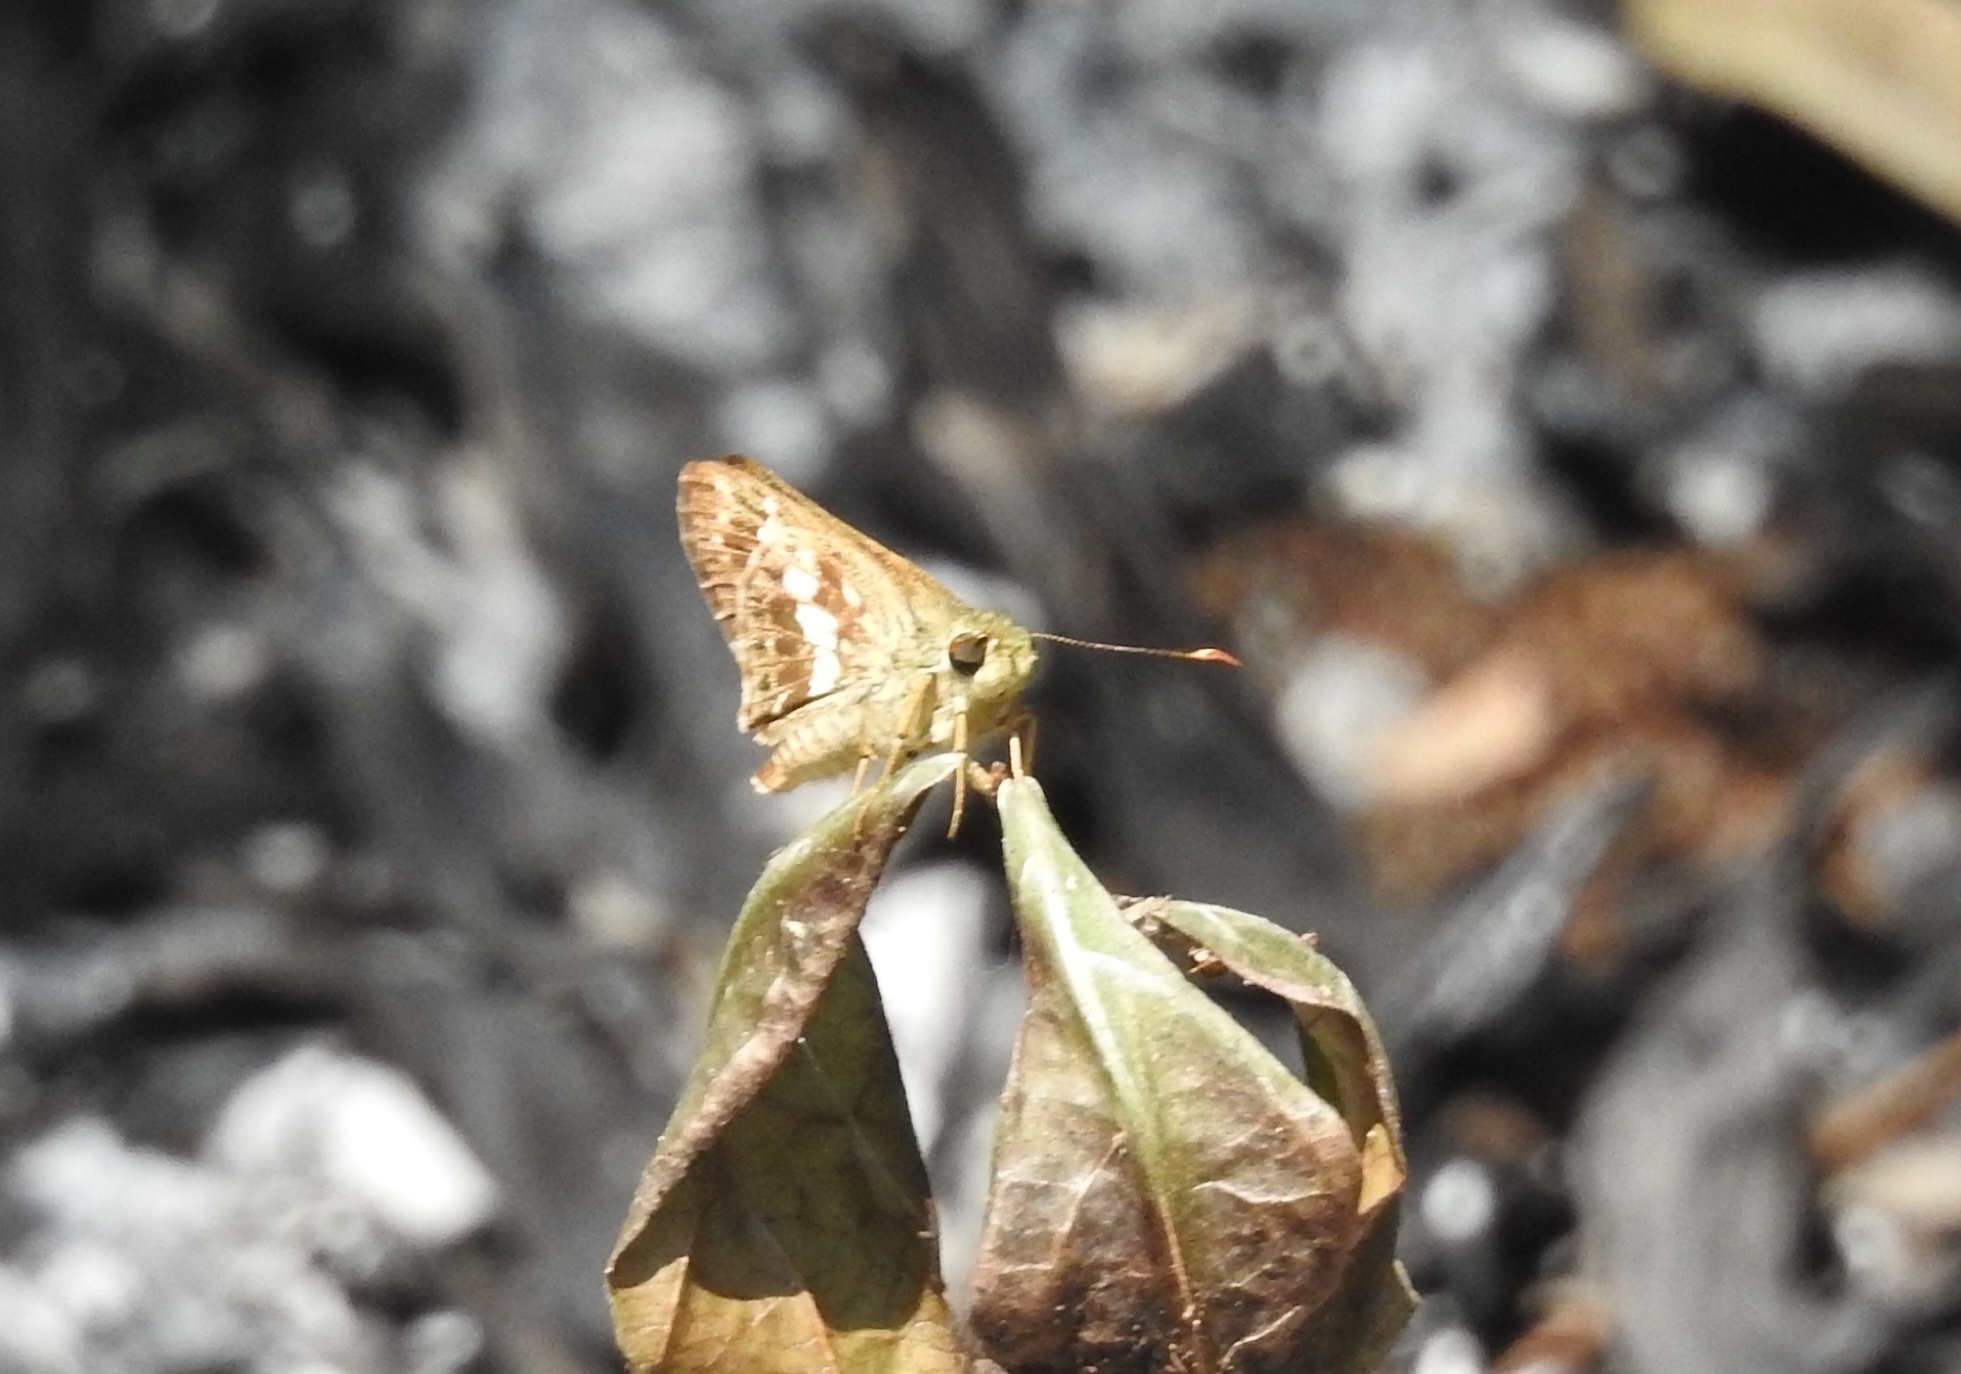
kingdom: Animalia
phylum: Arthropoda
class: Insecta
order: Lepidoptera
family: Hesperiidae
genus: Halpe
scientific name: Halpe porus
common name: Moore's ace
